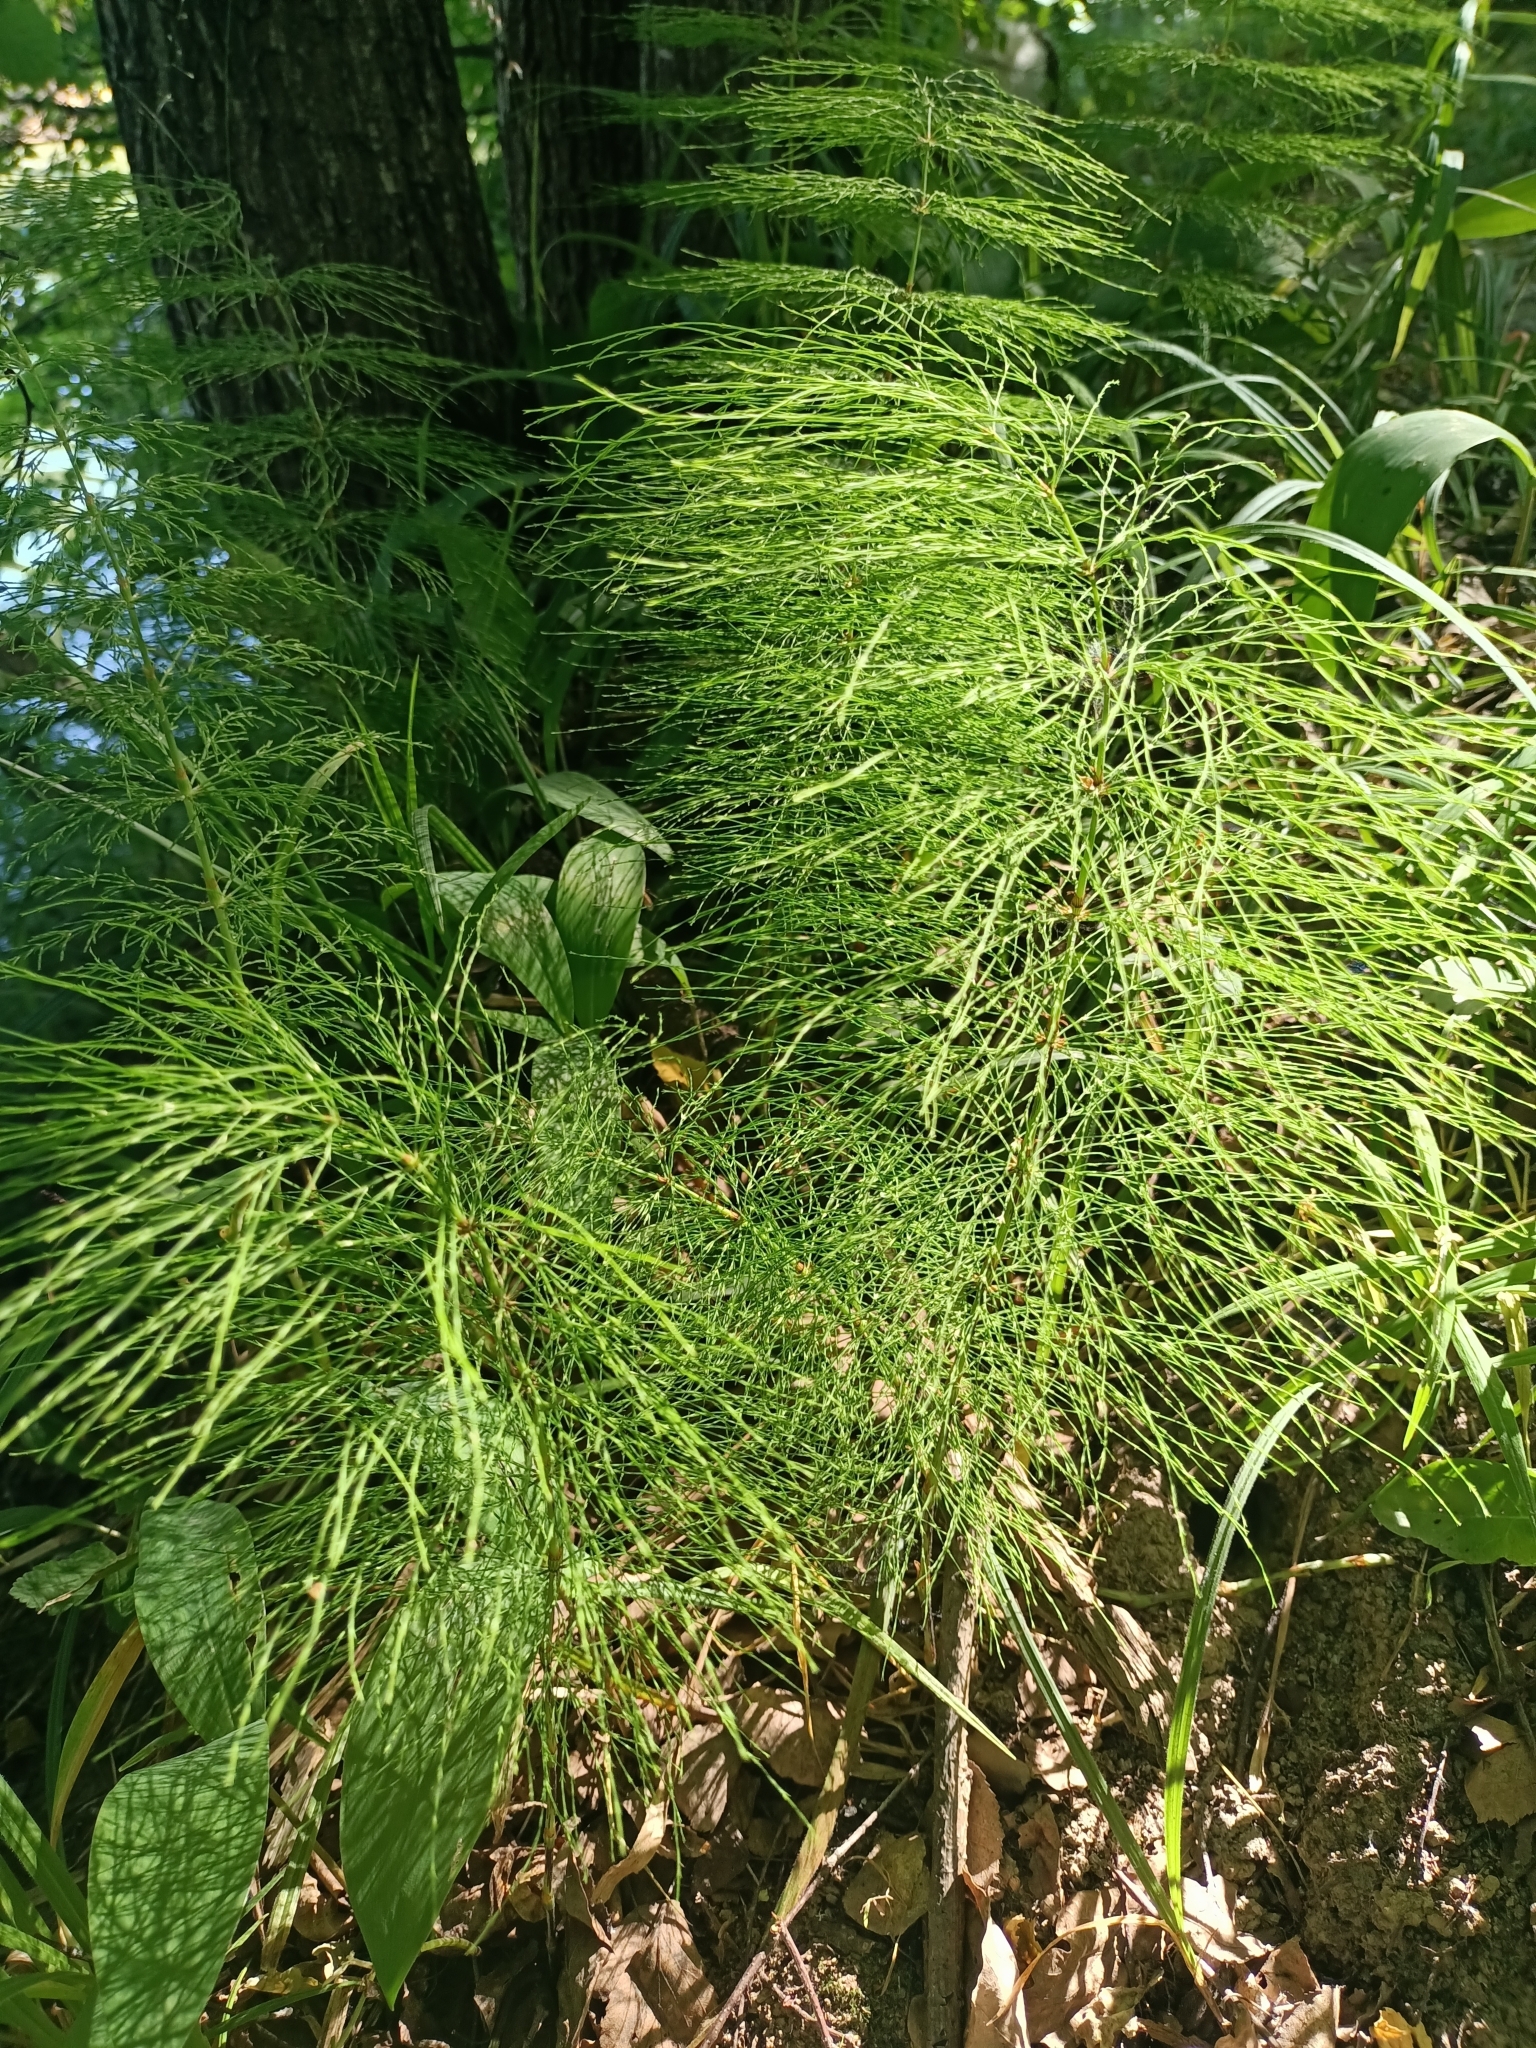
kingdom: Plantae
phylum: Tracheophyta
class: Polypodiopsida
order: Equisetales
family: Equisetaceae
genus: Equisetum
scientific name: Equisetum sylvaticum
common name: Wood horsetail
